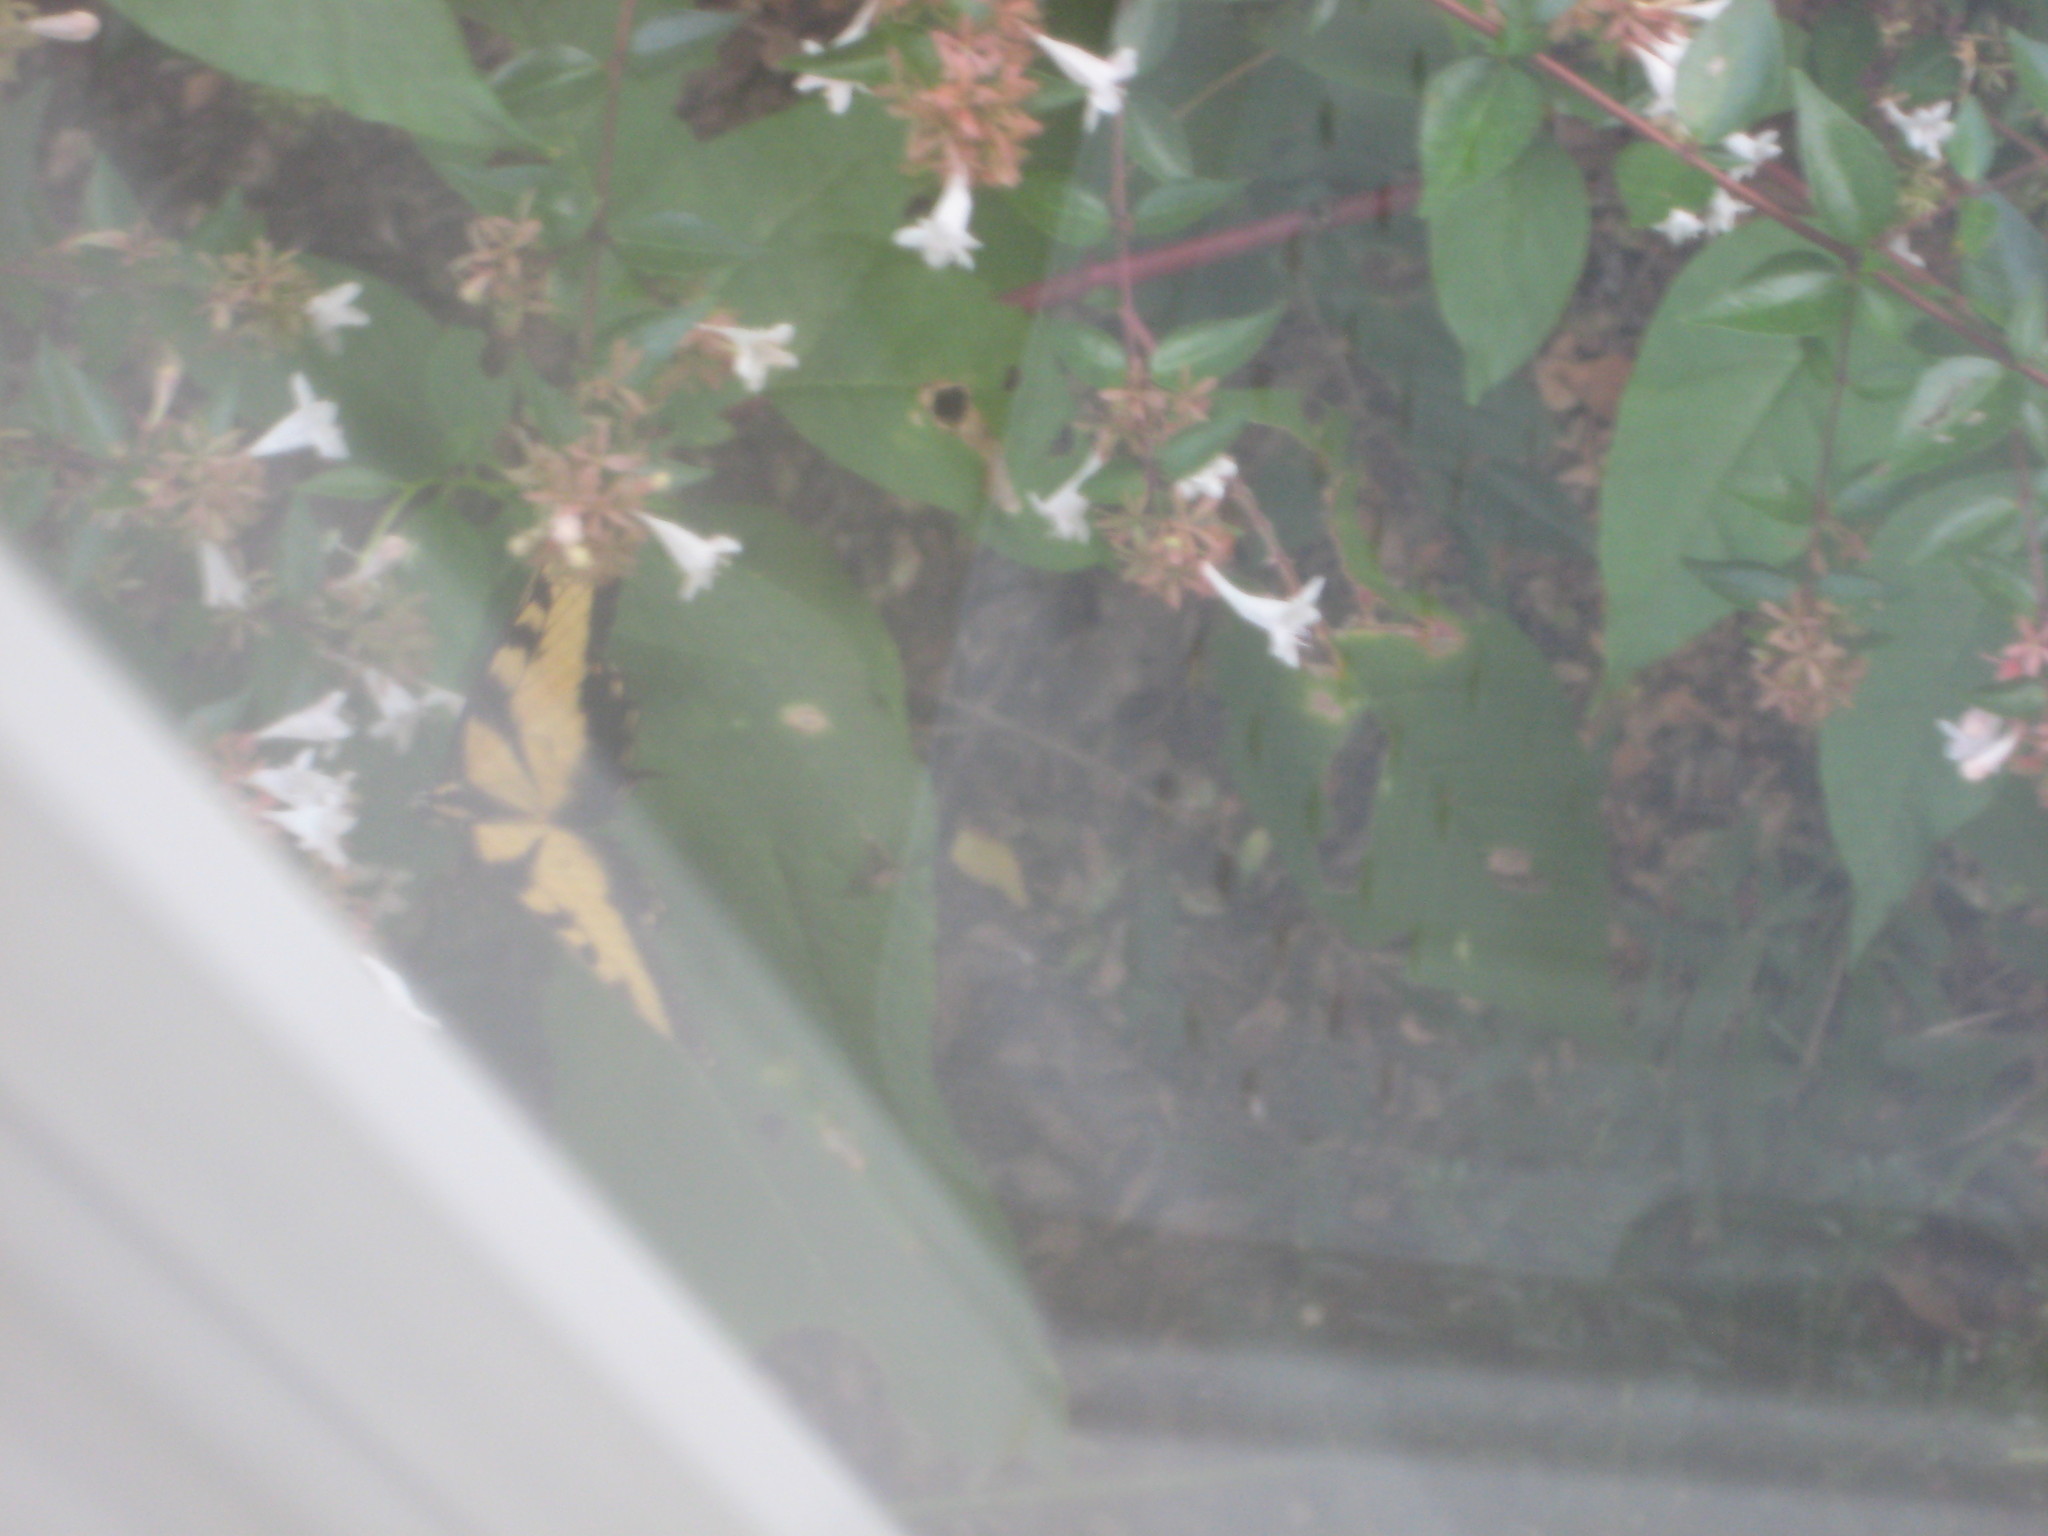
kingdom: Animalia
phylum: Arthropoda
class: Insecta
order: Lepidoptera
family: Papilionidae
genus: Papilio
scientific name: Papilio glaucus
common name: Tiger swallowtail
